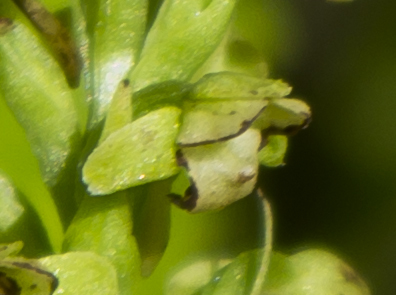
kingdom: Plantae
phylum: Tracheophyta
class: Liliopsida
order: Asparagales
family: Orchidaceae
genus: Platanthera
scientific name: Platanthera flava
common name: Gypsy-spikes
